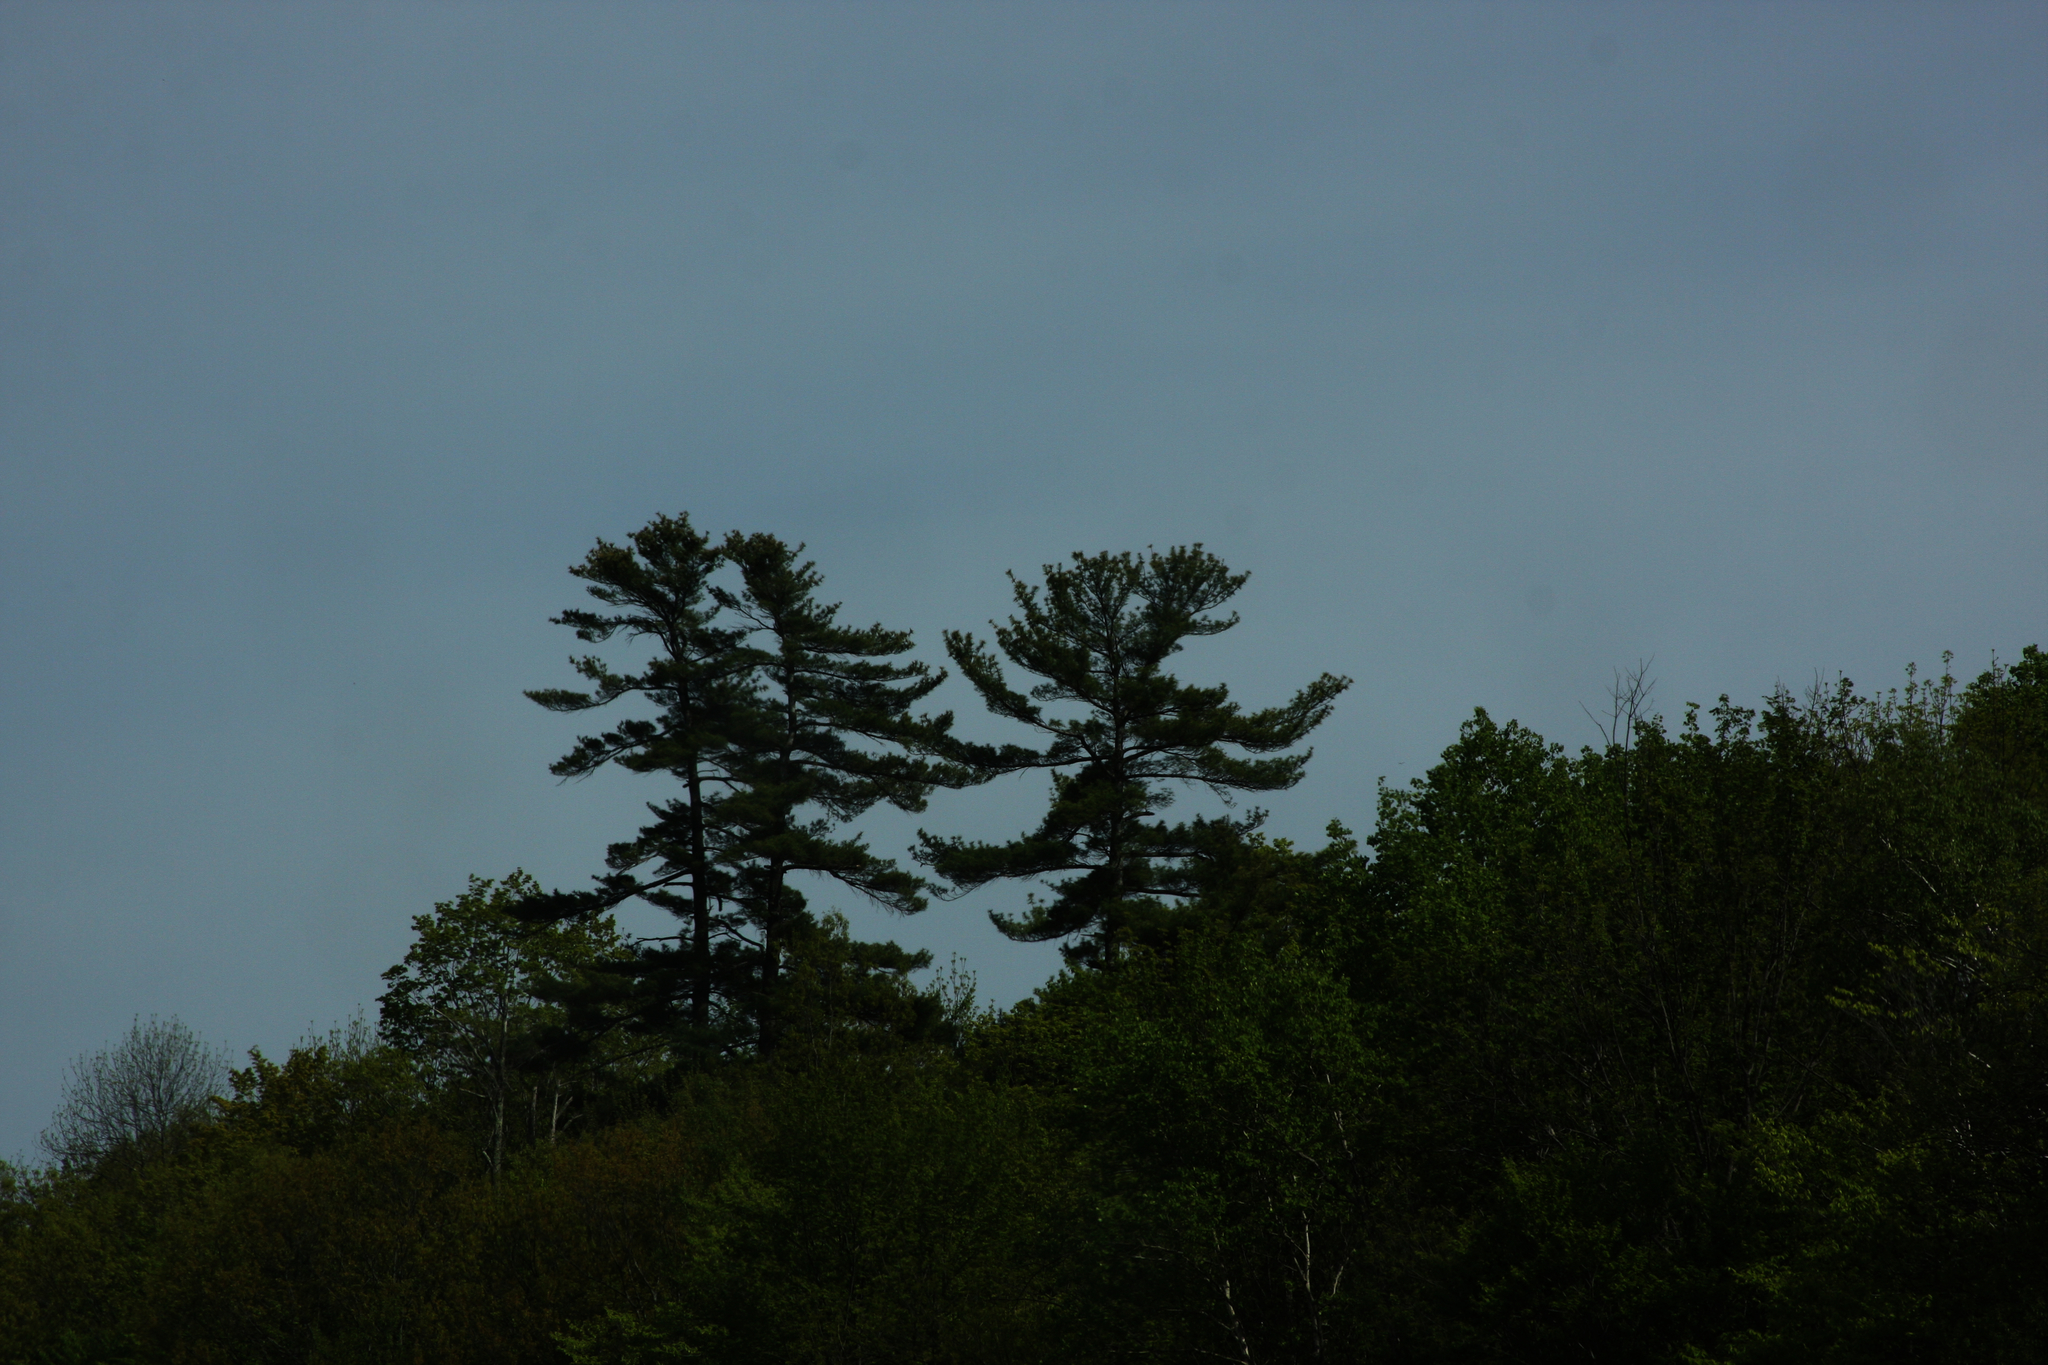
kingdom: Plantae
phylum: Tracheophyta
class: Pinopsida
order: Pinales
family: Pinaceae
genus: Pinus
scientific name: Pinus strobus
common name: Weymouth pine
